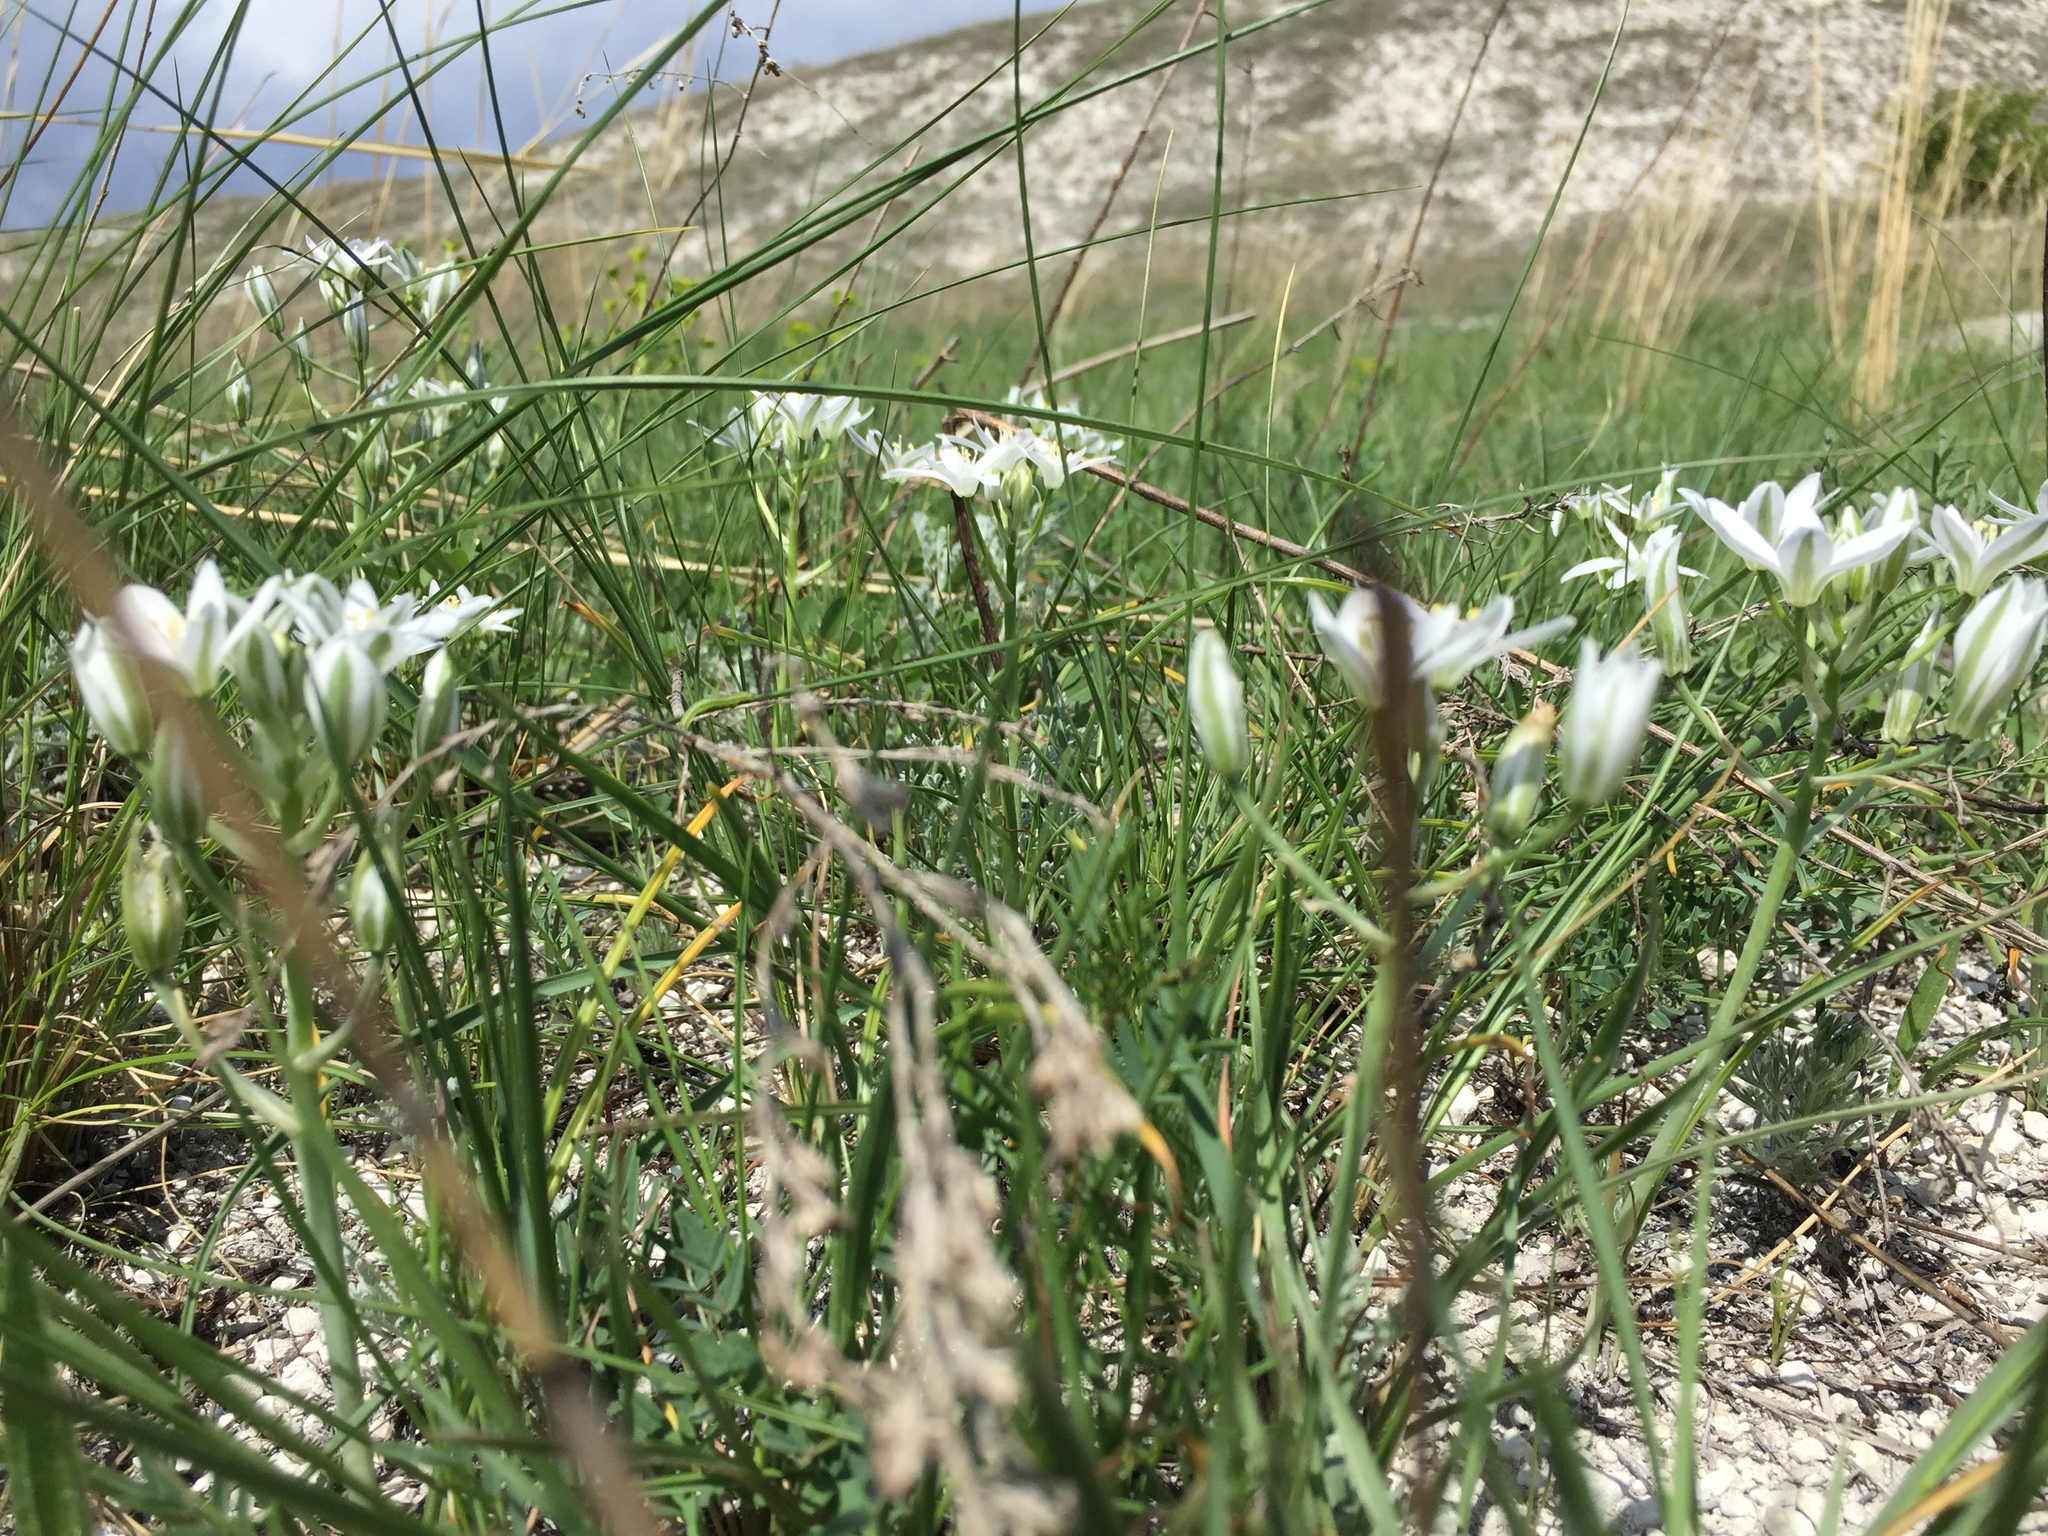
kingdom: Plantae
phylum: Tracheophyta
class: Liliopsida
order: Asparagales
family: Asparagaceae
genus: Ornithogalum
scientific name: Ornithogalum orthophyllum
